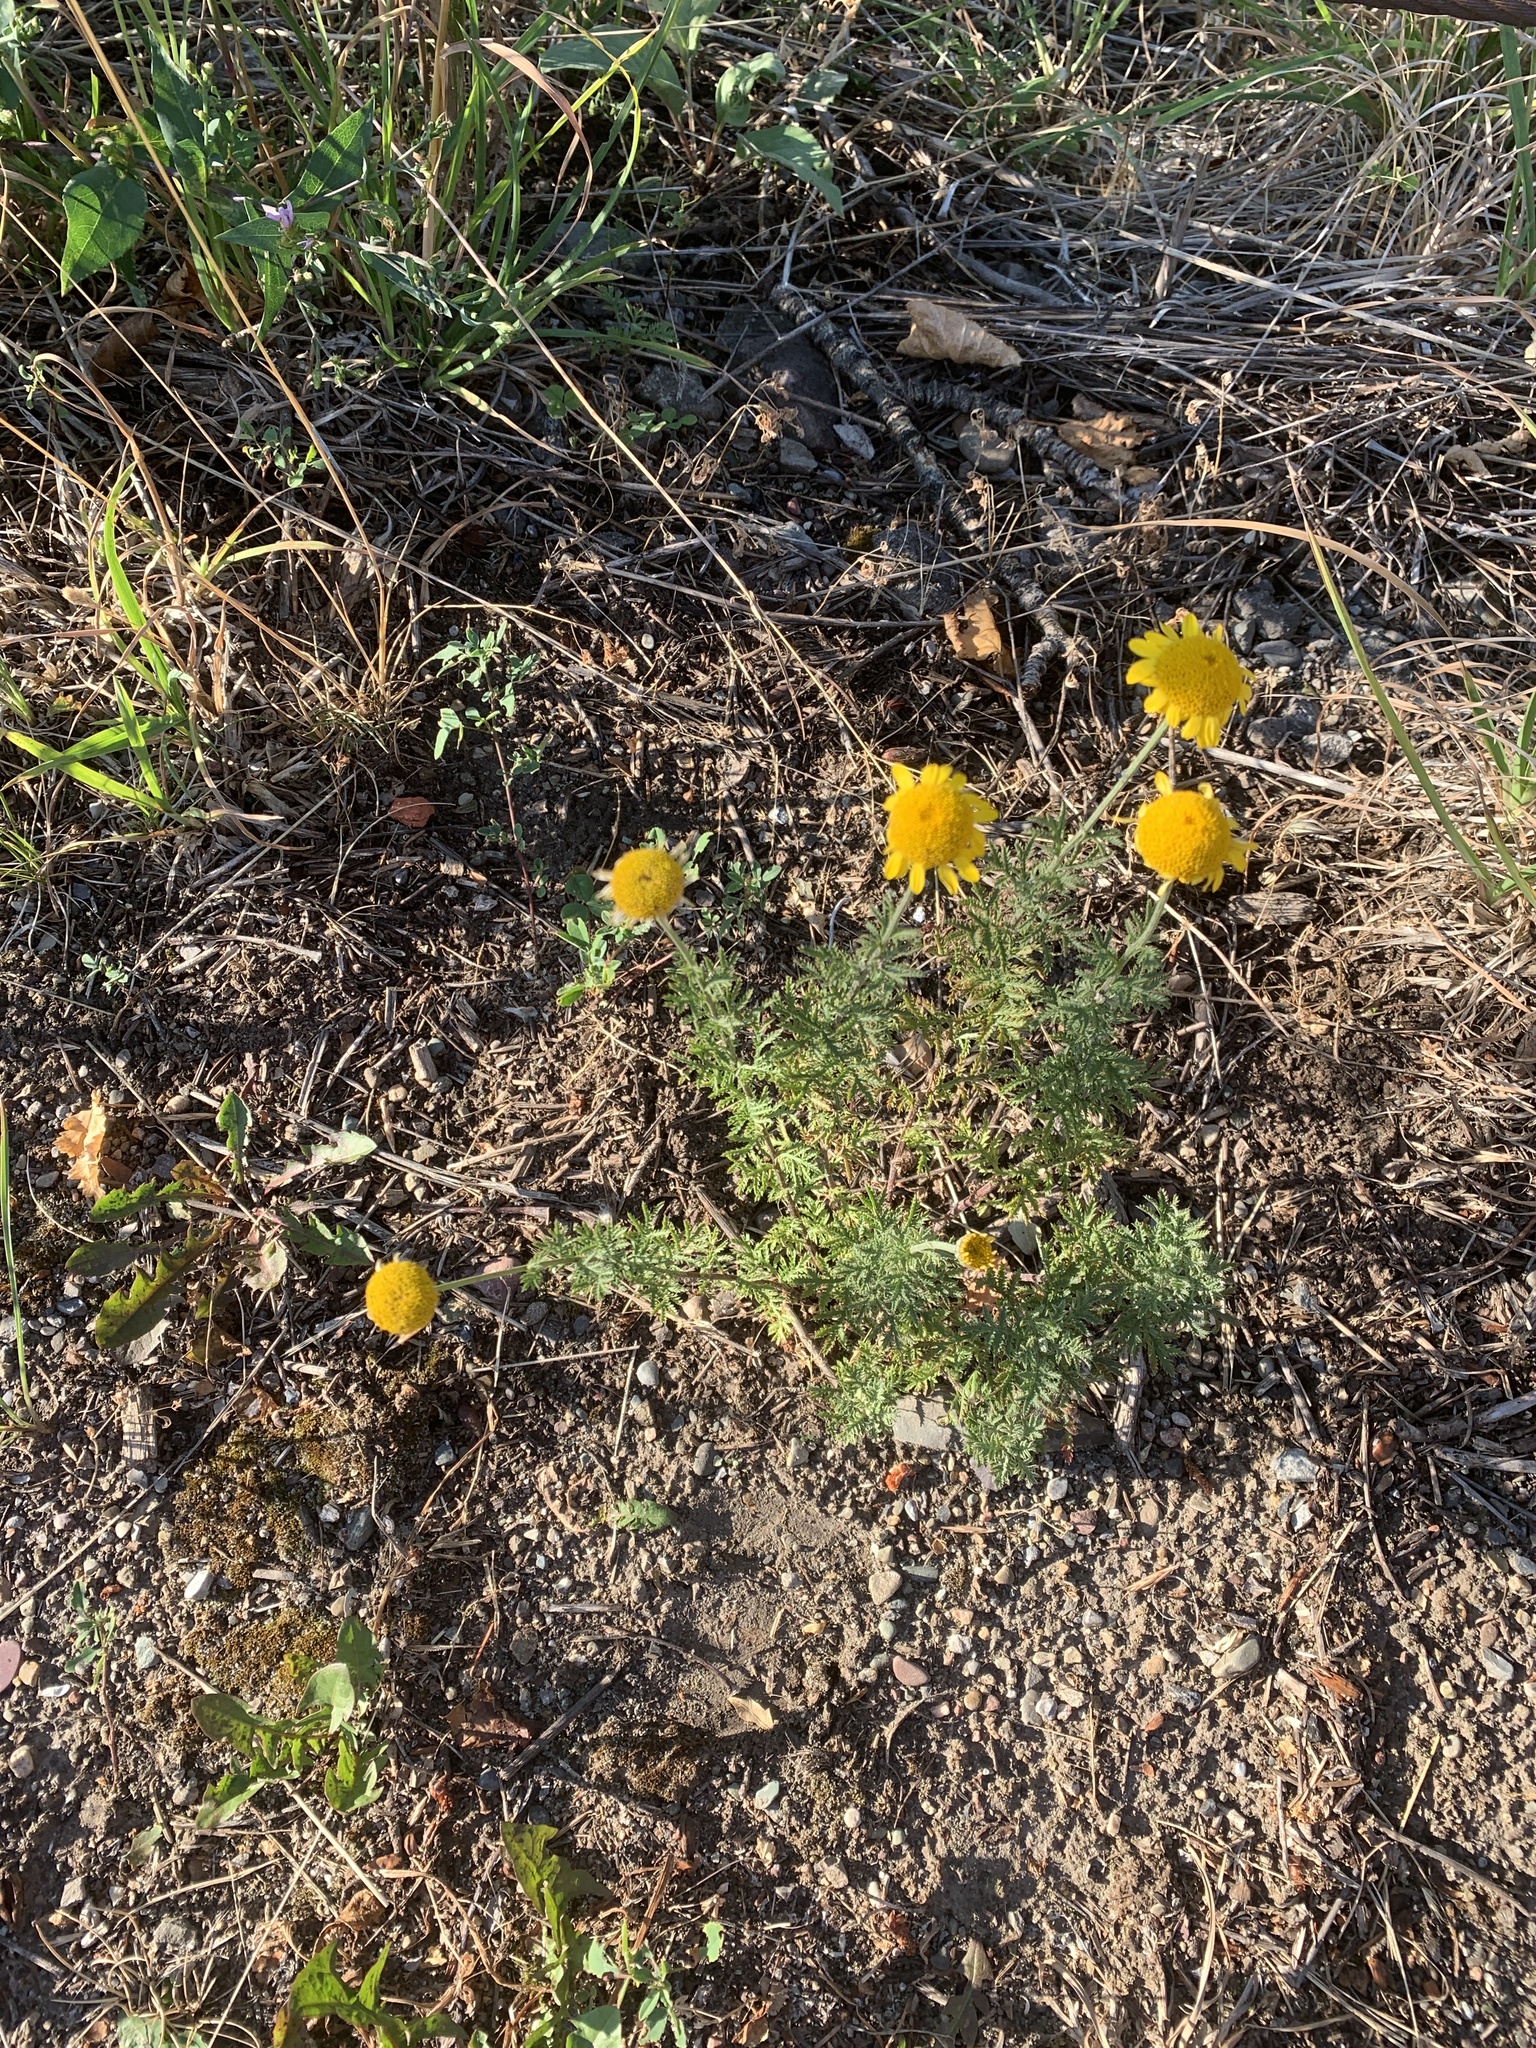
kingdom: Plantae
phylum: Tracheophyta
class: Magnoliopsida
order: Asterales
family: Asteraceae
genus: Cota
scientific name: Cota tinctoria
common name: Golden chamomile
